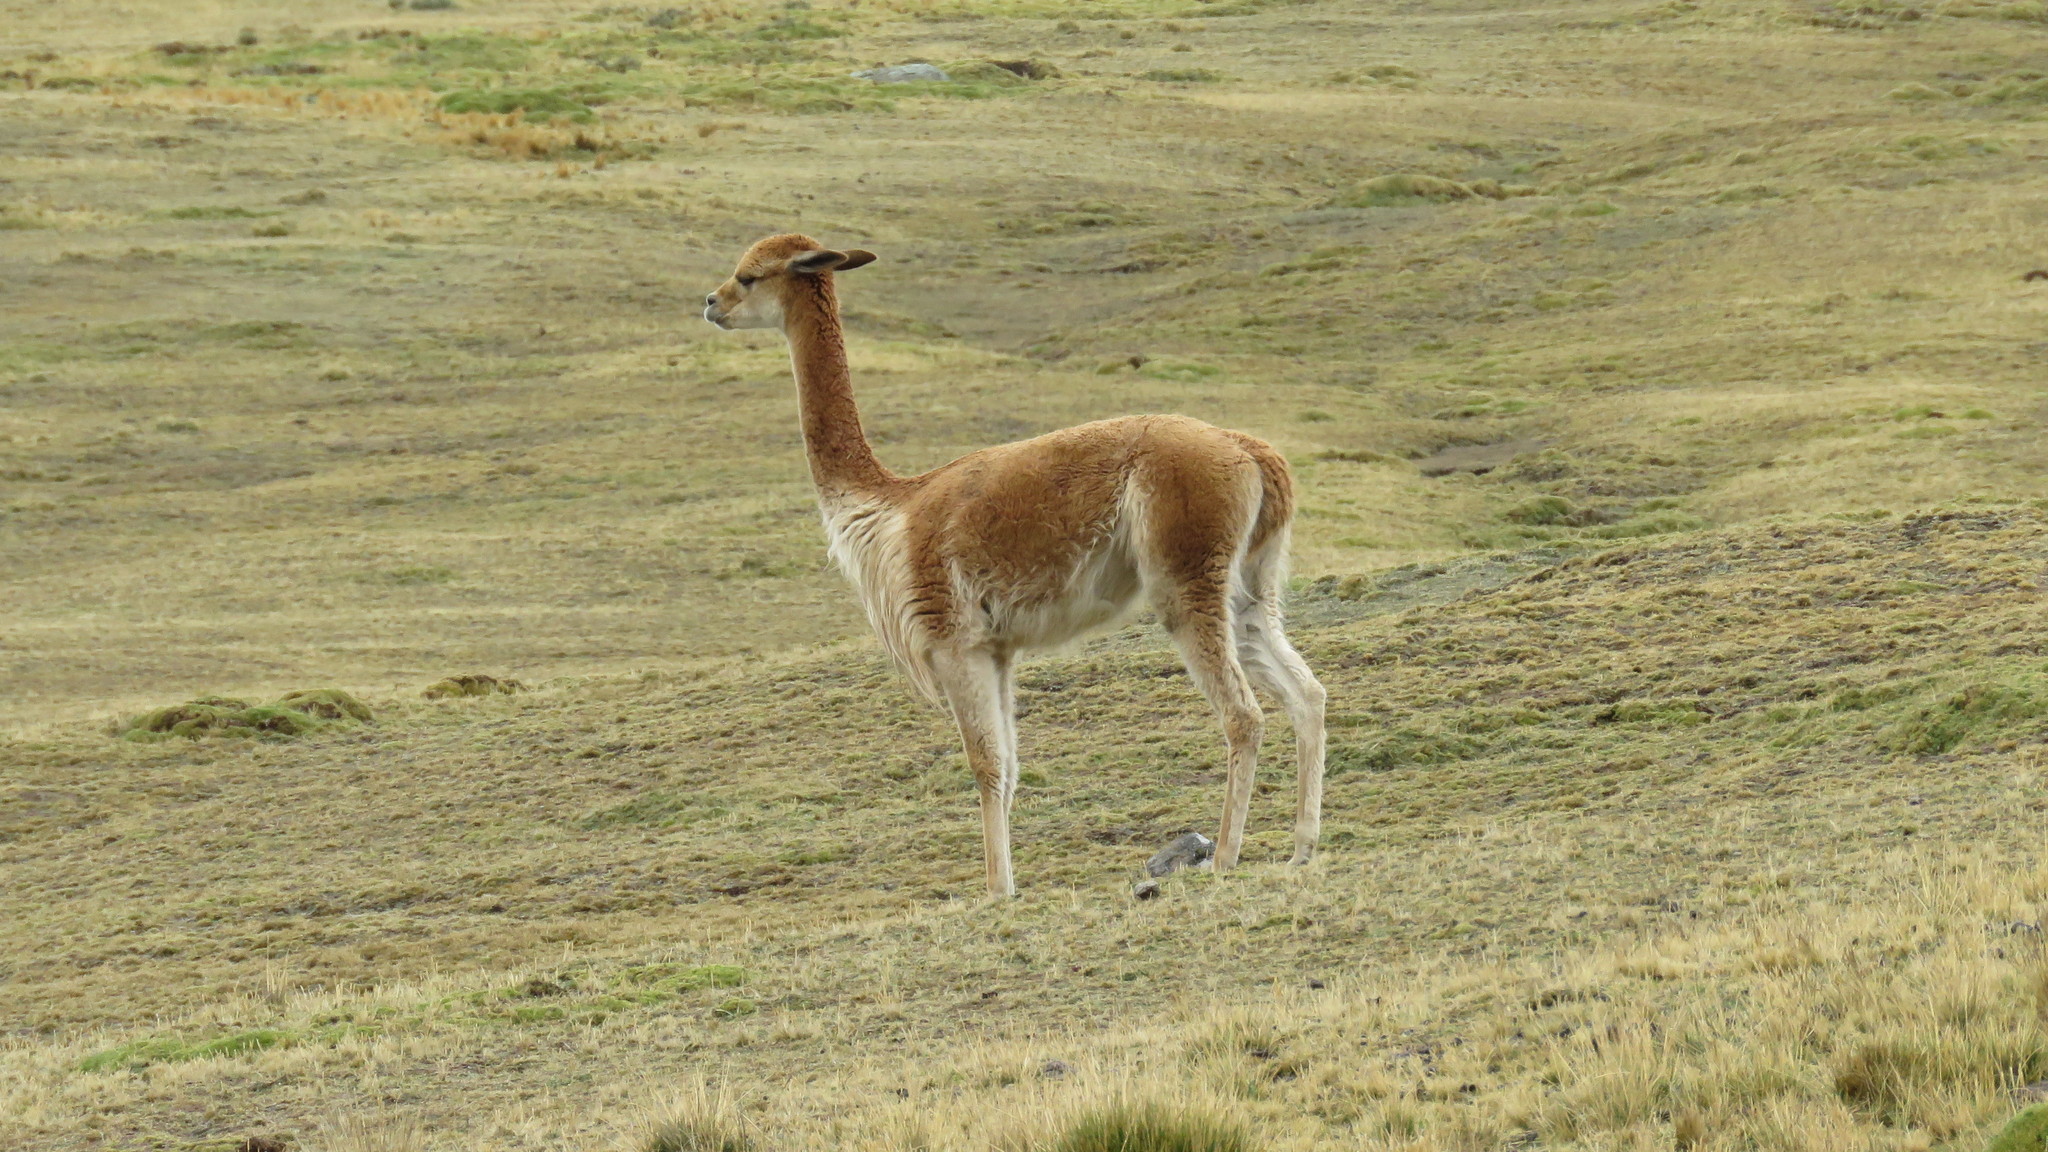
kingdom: Animalia
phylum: Chordata
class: Mammalia
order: Artiodactyla
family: Camelidae
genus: Vicugna
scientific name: Vicugna vicugna
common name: Vicugna
